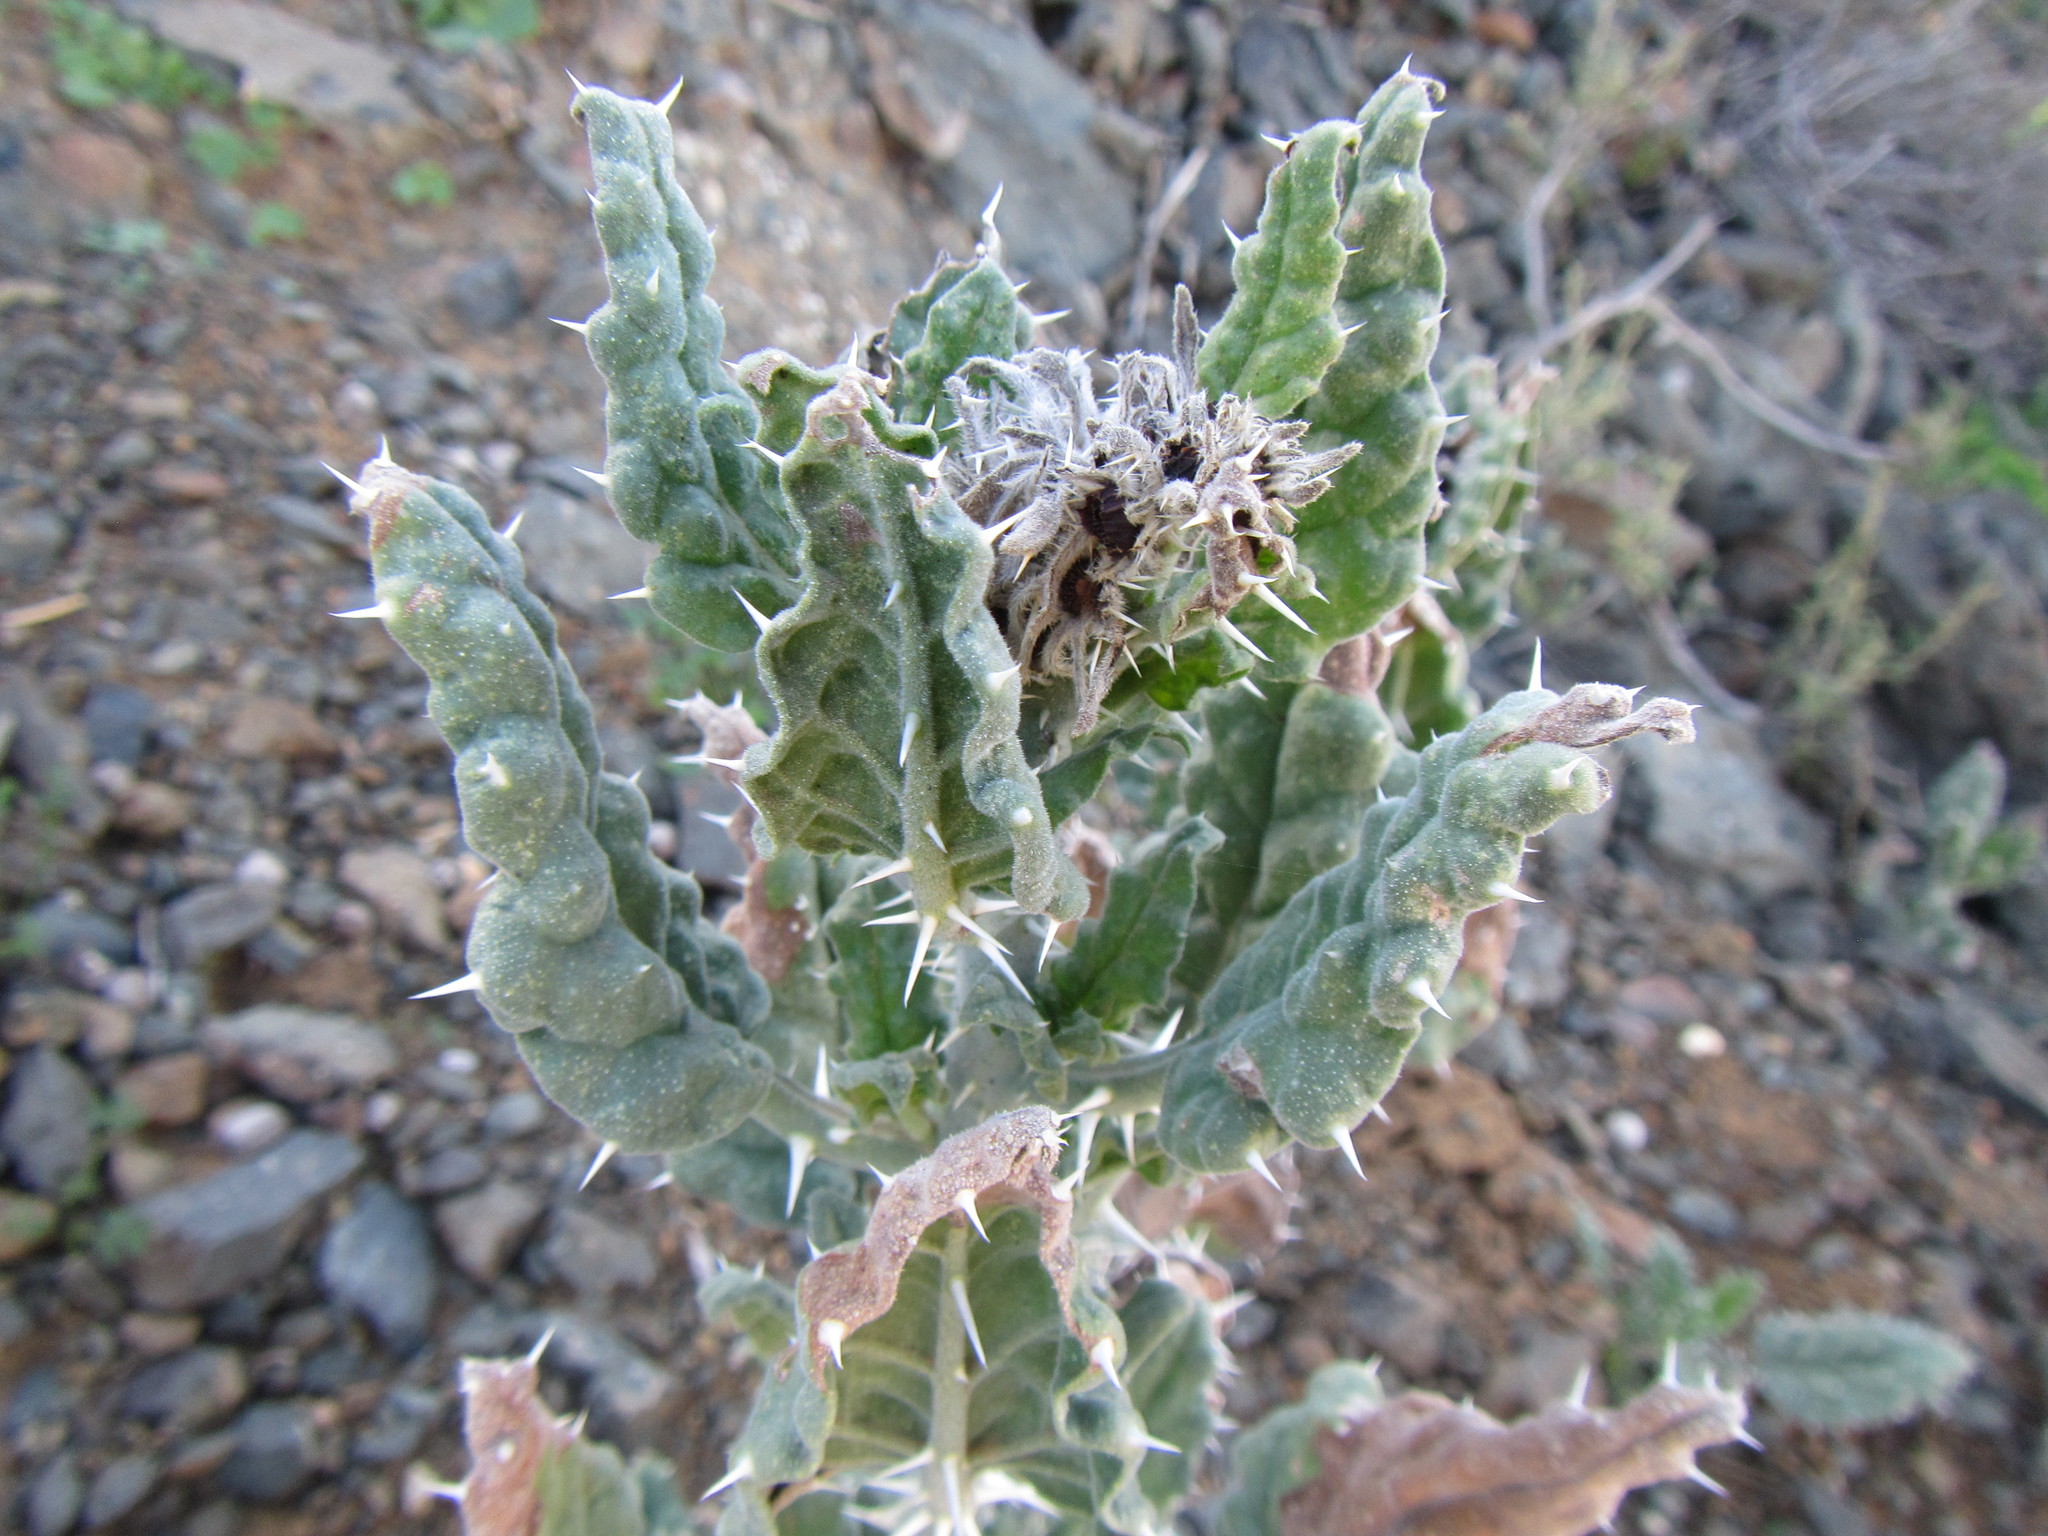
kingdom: Plantae
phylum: Tracheophyta
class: Magnoliopsida
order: Boraginales
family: Boraginaceae
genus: Codon
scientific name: Codon royenii
